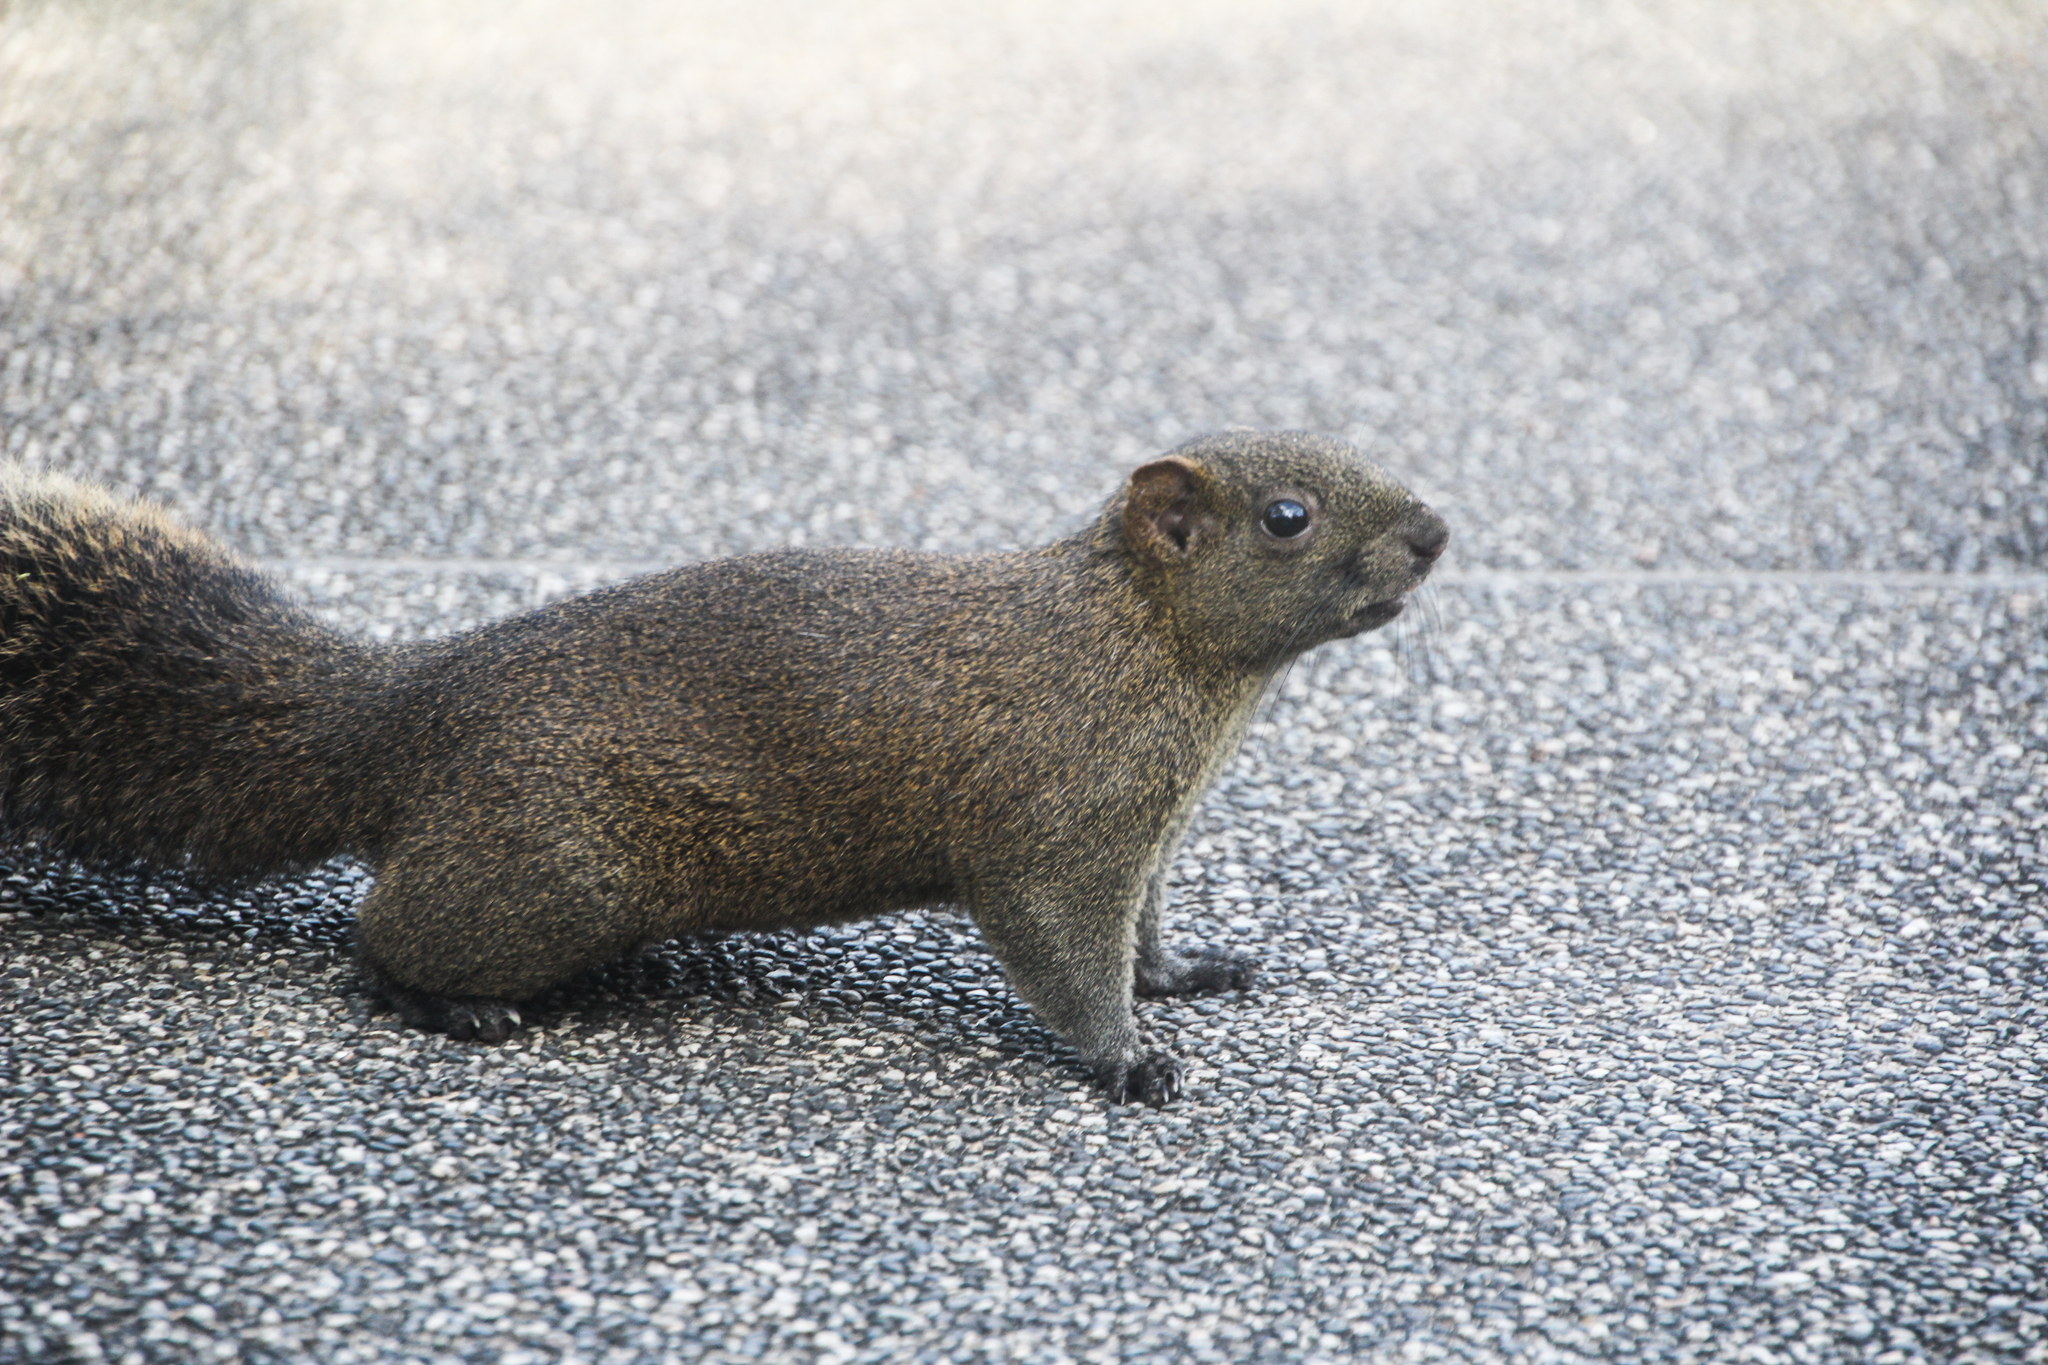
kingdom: Animalia
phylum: Chordata
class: Mammalia
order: Rodentia
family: Sciuridae
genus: Callosciurus
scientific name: Callosciurus erythraeus
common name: Pallas's squirrel
